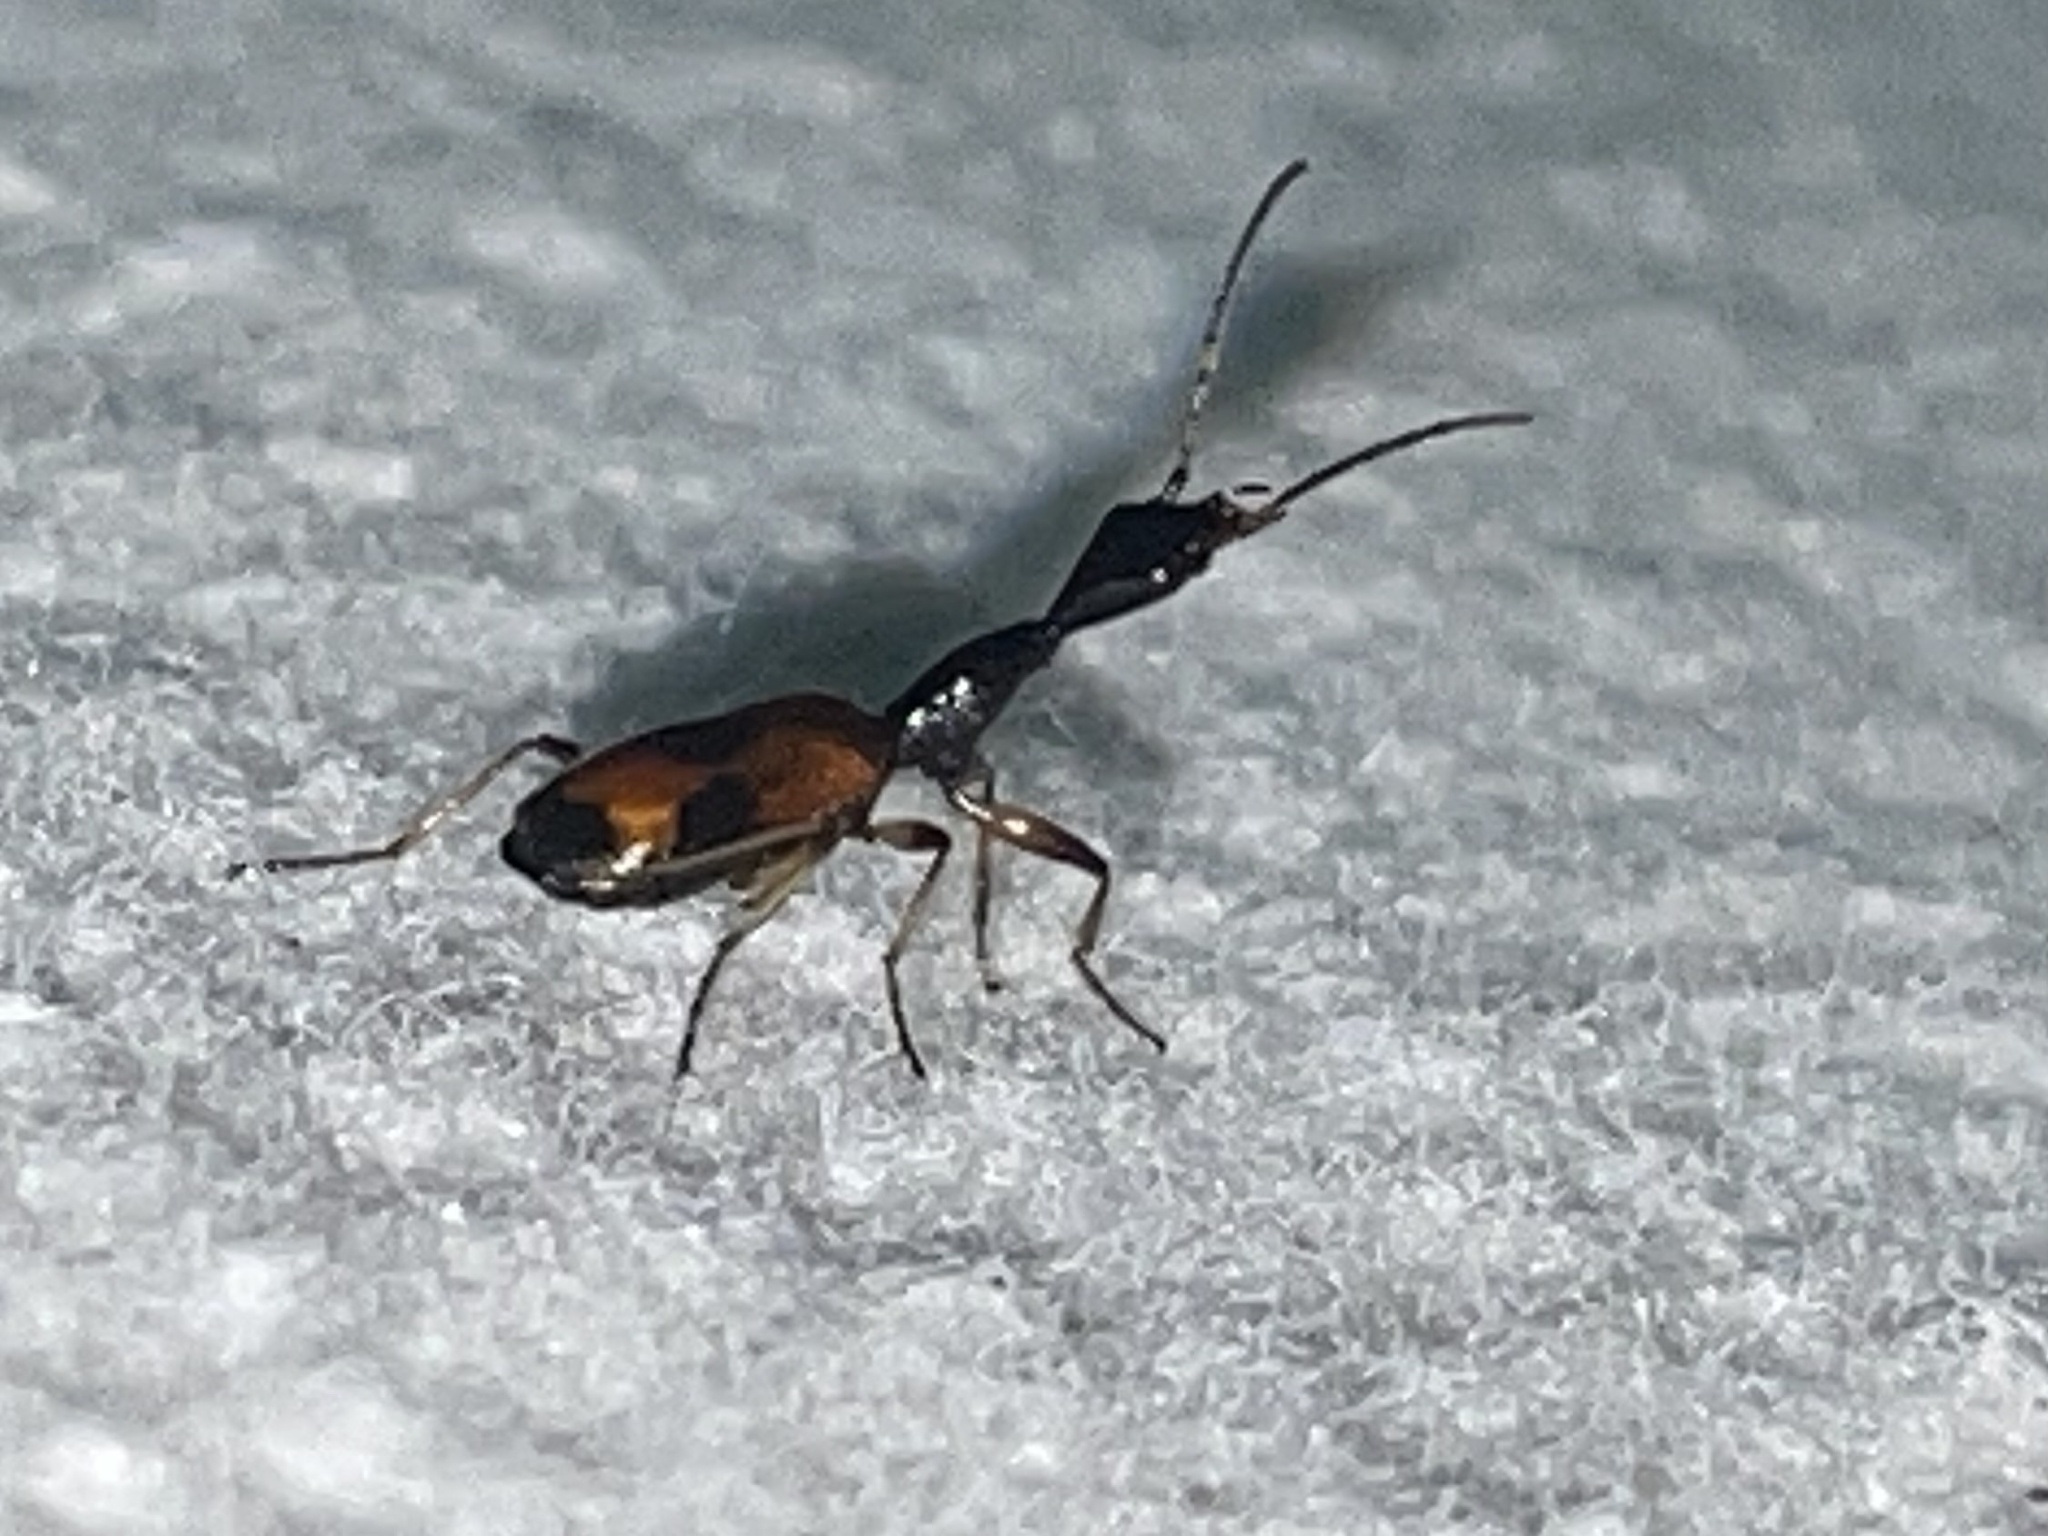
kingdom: Animalia
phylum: Arthropoda
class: Insecta
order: Coleoptera
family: Carabidae
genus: Colliuris
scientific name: Colliuris pensylvanica
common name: Long-necked ground beetle
